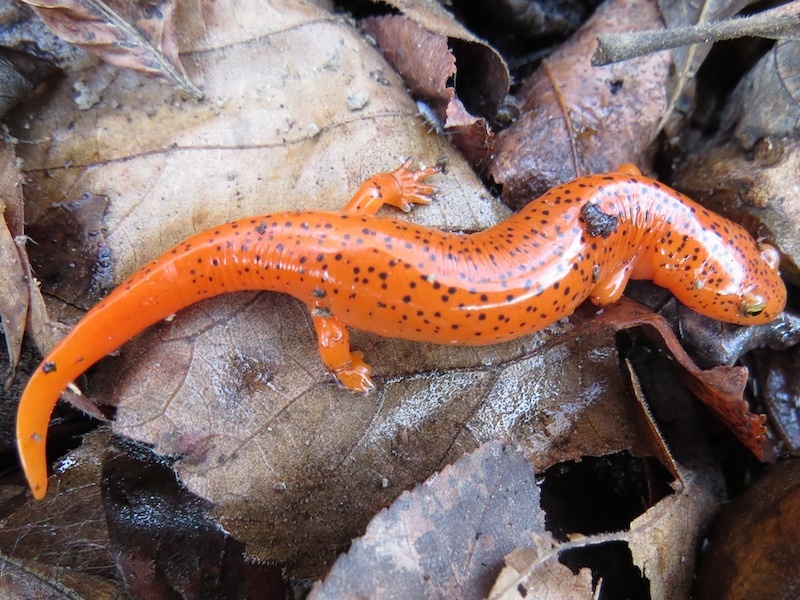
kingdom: Animalia
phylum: Chordata
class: Amphibia
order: Caudata
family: Plethodontidae
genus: Pseudotriton
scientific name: Pseudotriton ruber
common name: Red salamander
